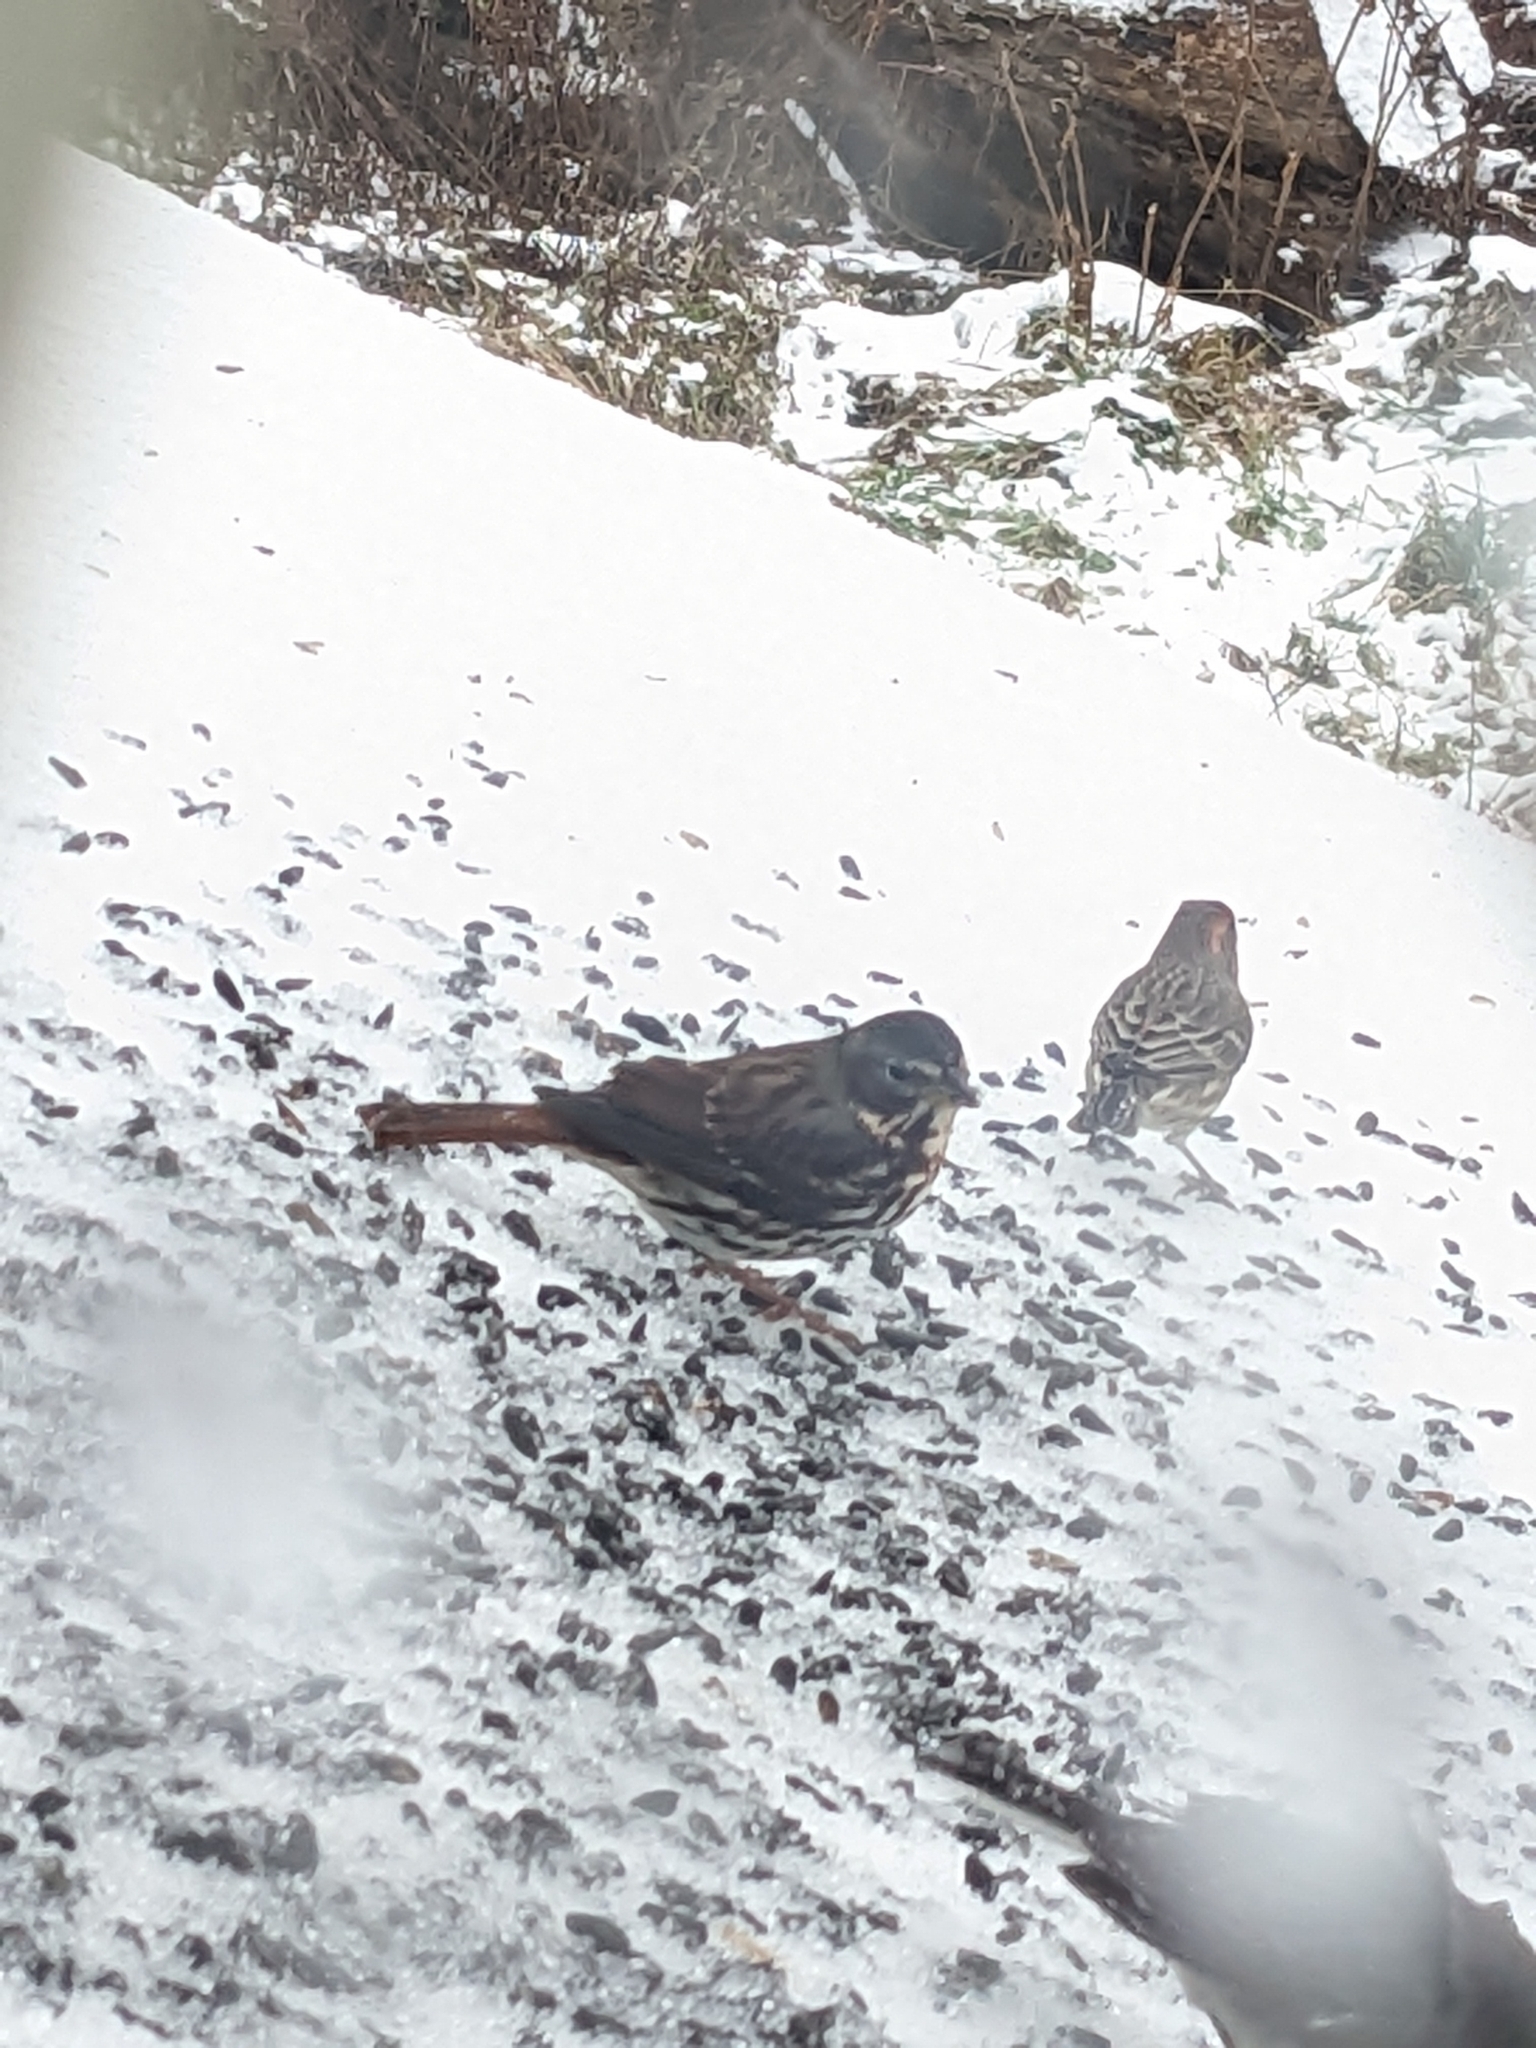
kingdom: Animalia
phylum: Chordata
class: Aves
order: Passeriformes
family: Passerellidae
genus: Passerella
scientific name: Passerella iliaca
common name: Fox sparrow
